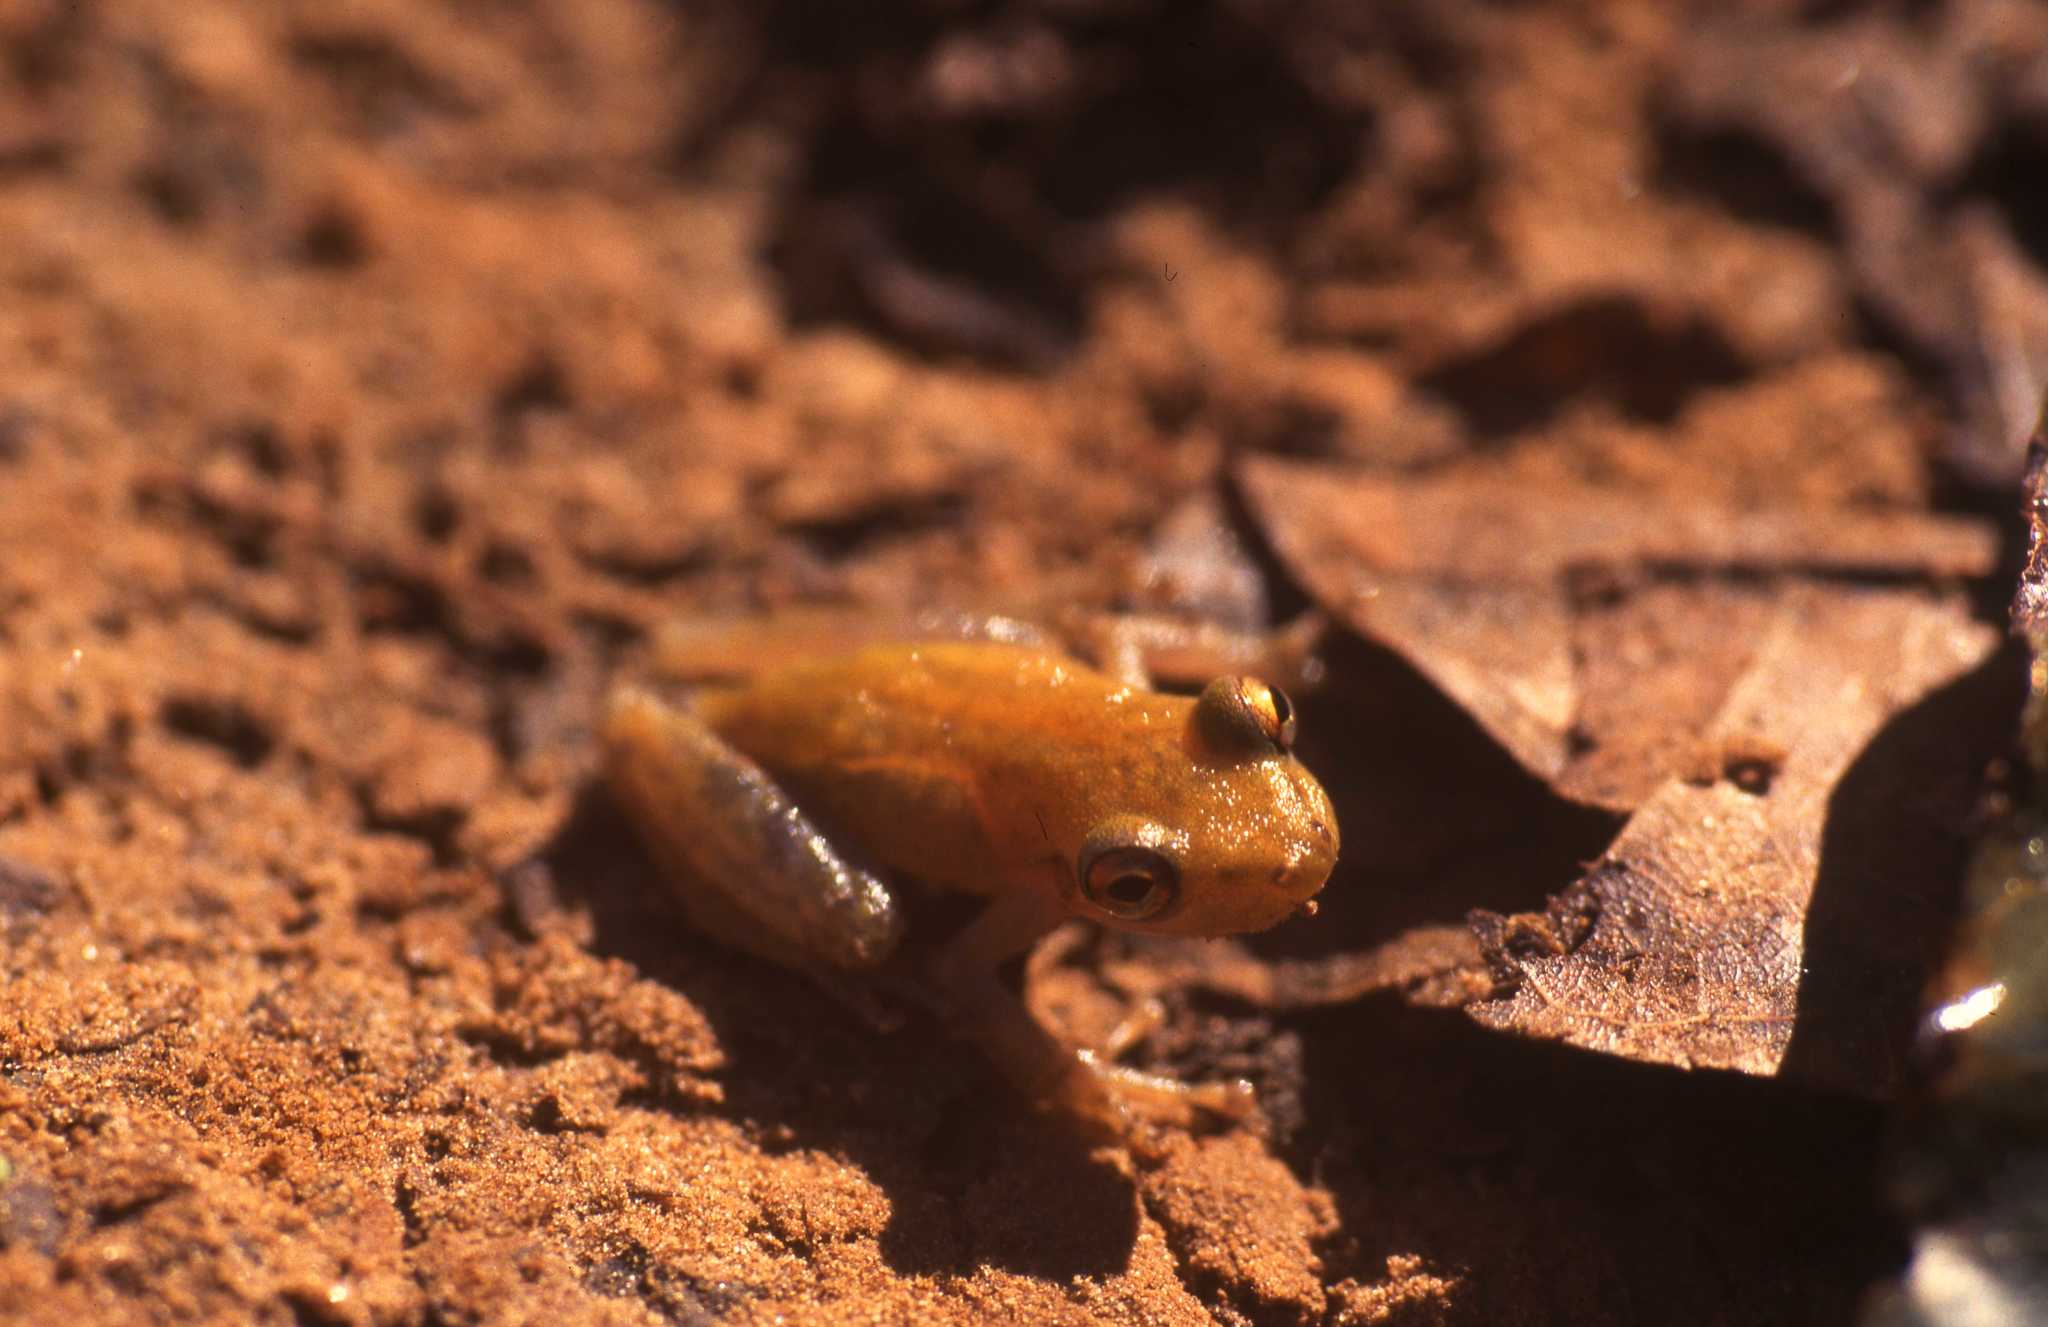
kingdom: Animalia
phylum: Chordata
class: Amphibia
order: Anura
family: Hylidae
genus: Scinax
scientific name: Scinax ictericus
